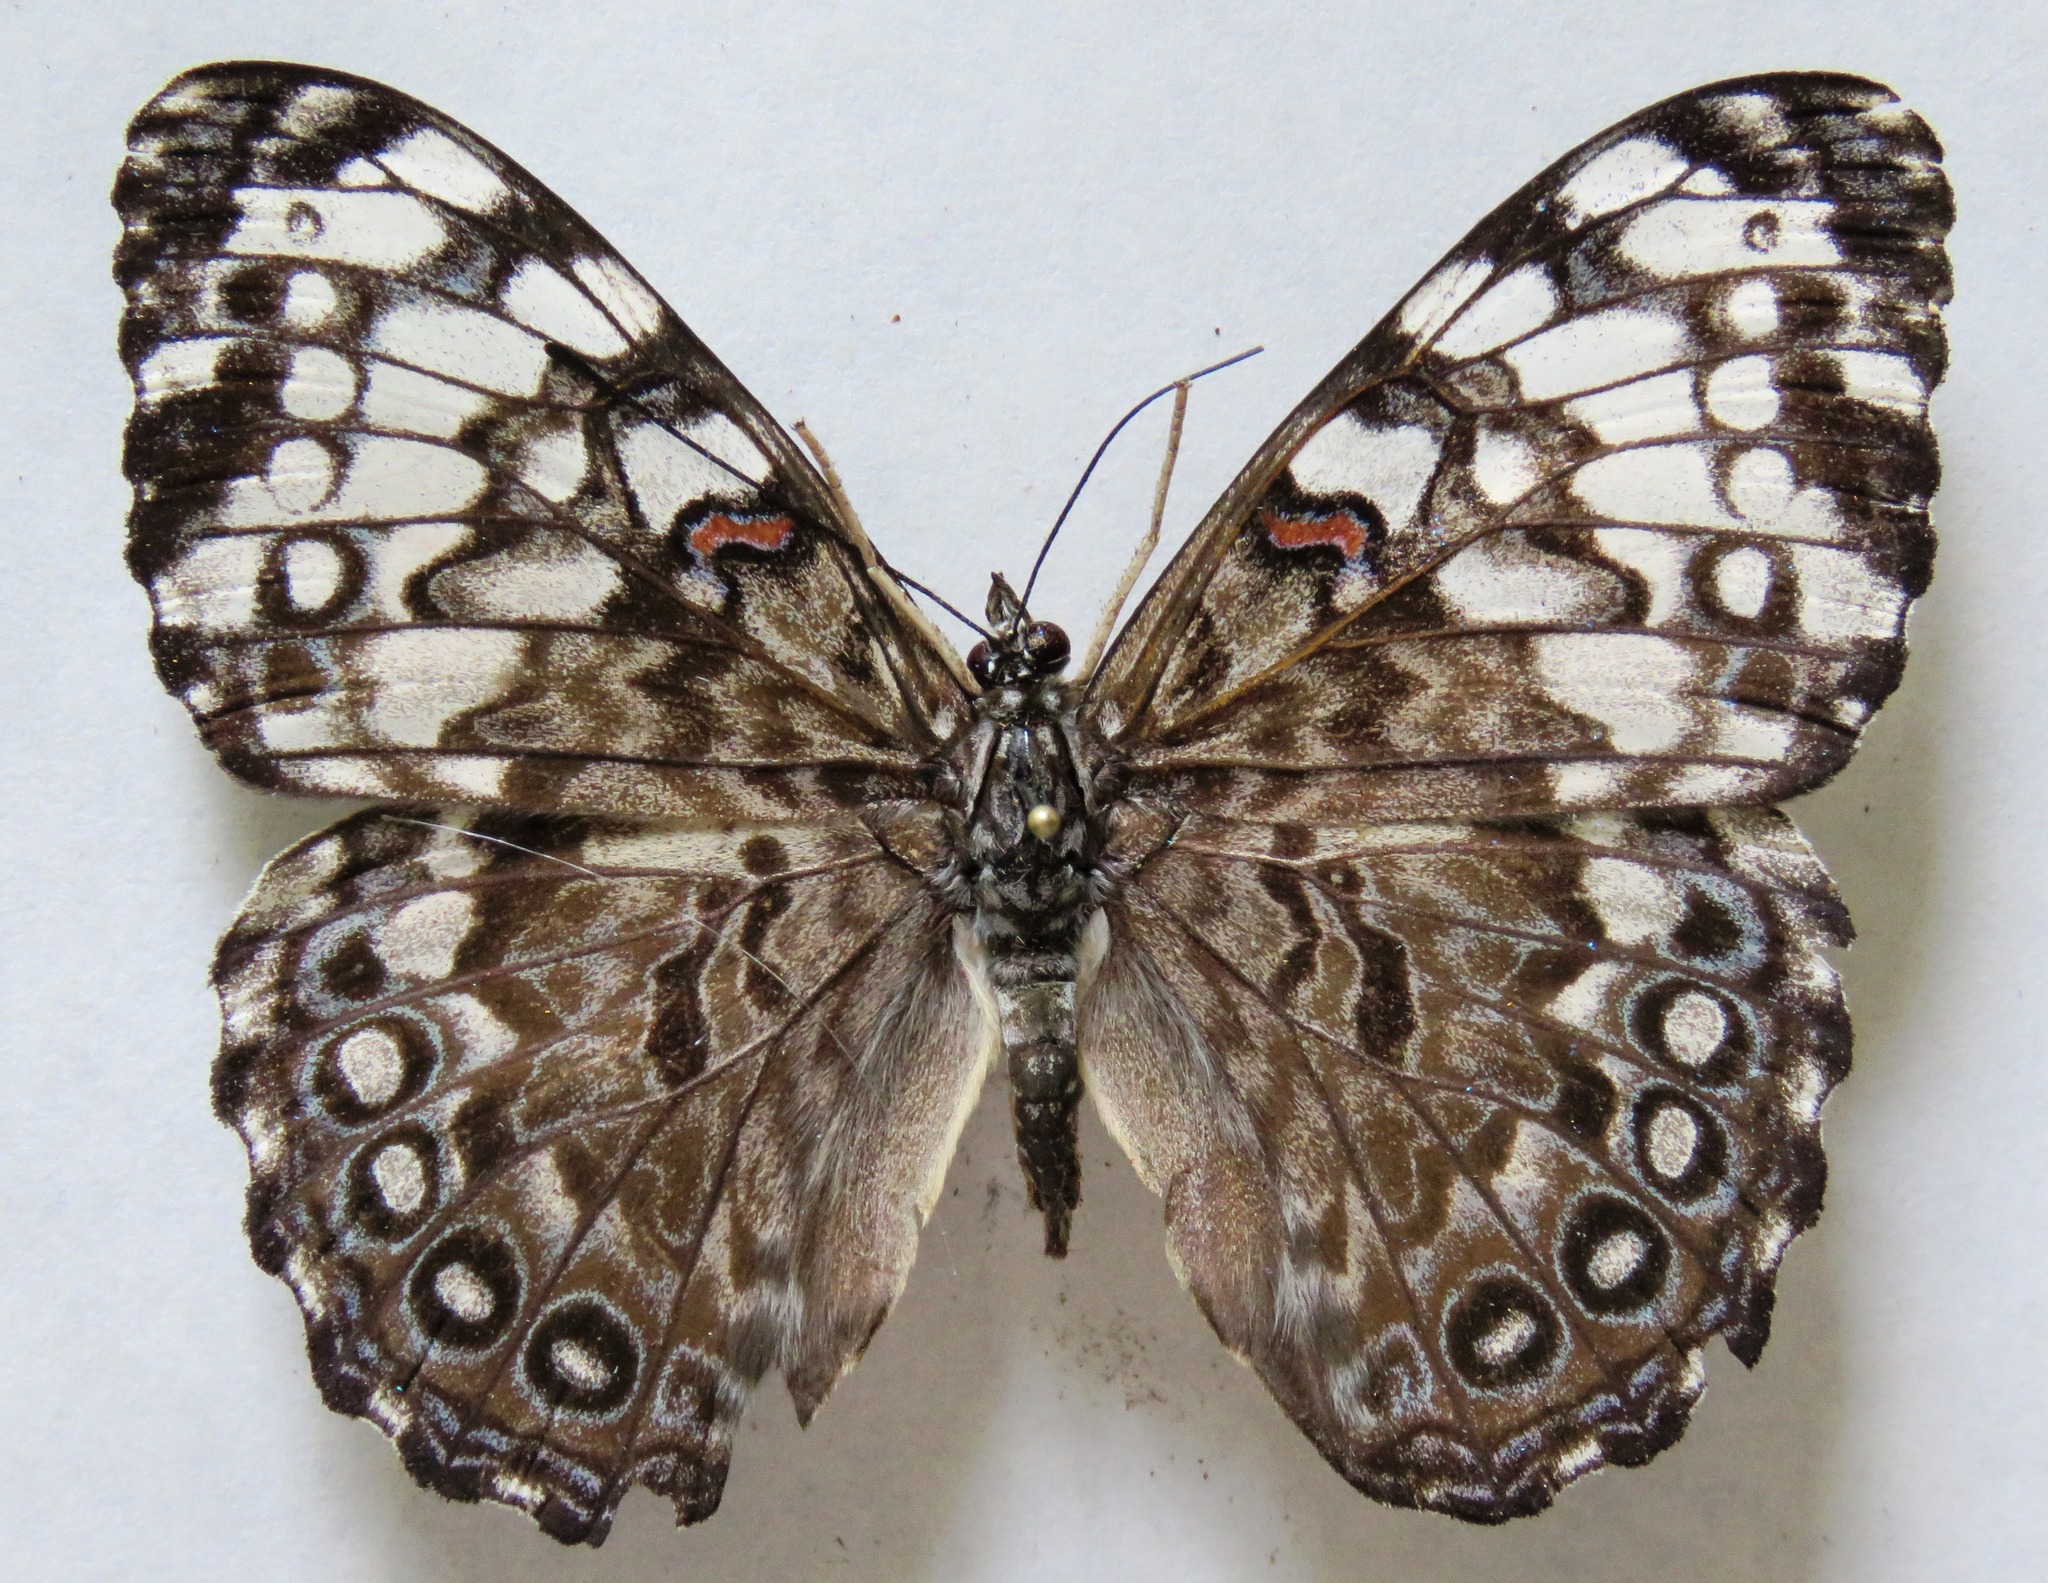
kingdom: Animalia
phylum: Arthropoda
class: Insecta
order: Lepidoptera
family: Nymphalidae
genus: Hamadryas
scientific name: Hamadryas guatemalena
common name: Guatemalan cracker
